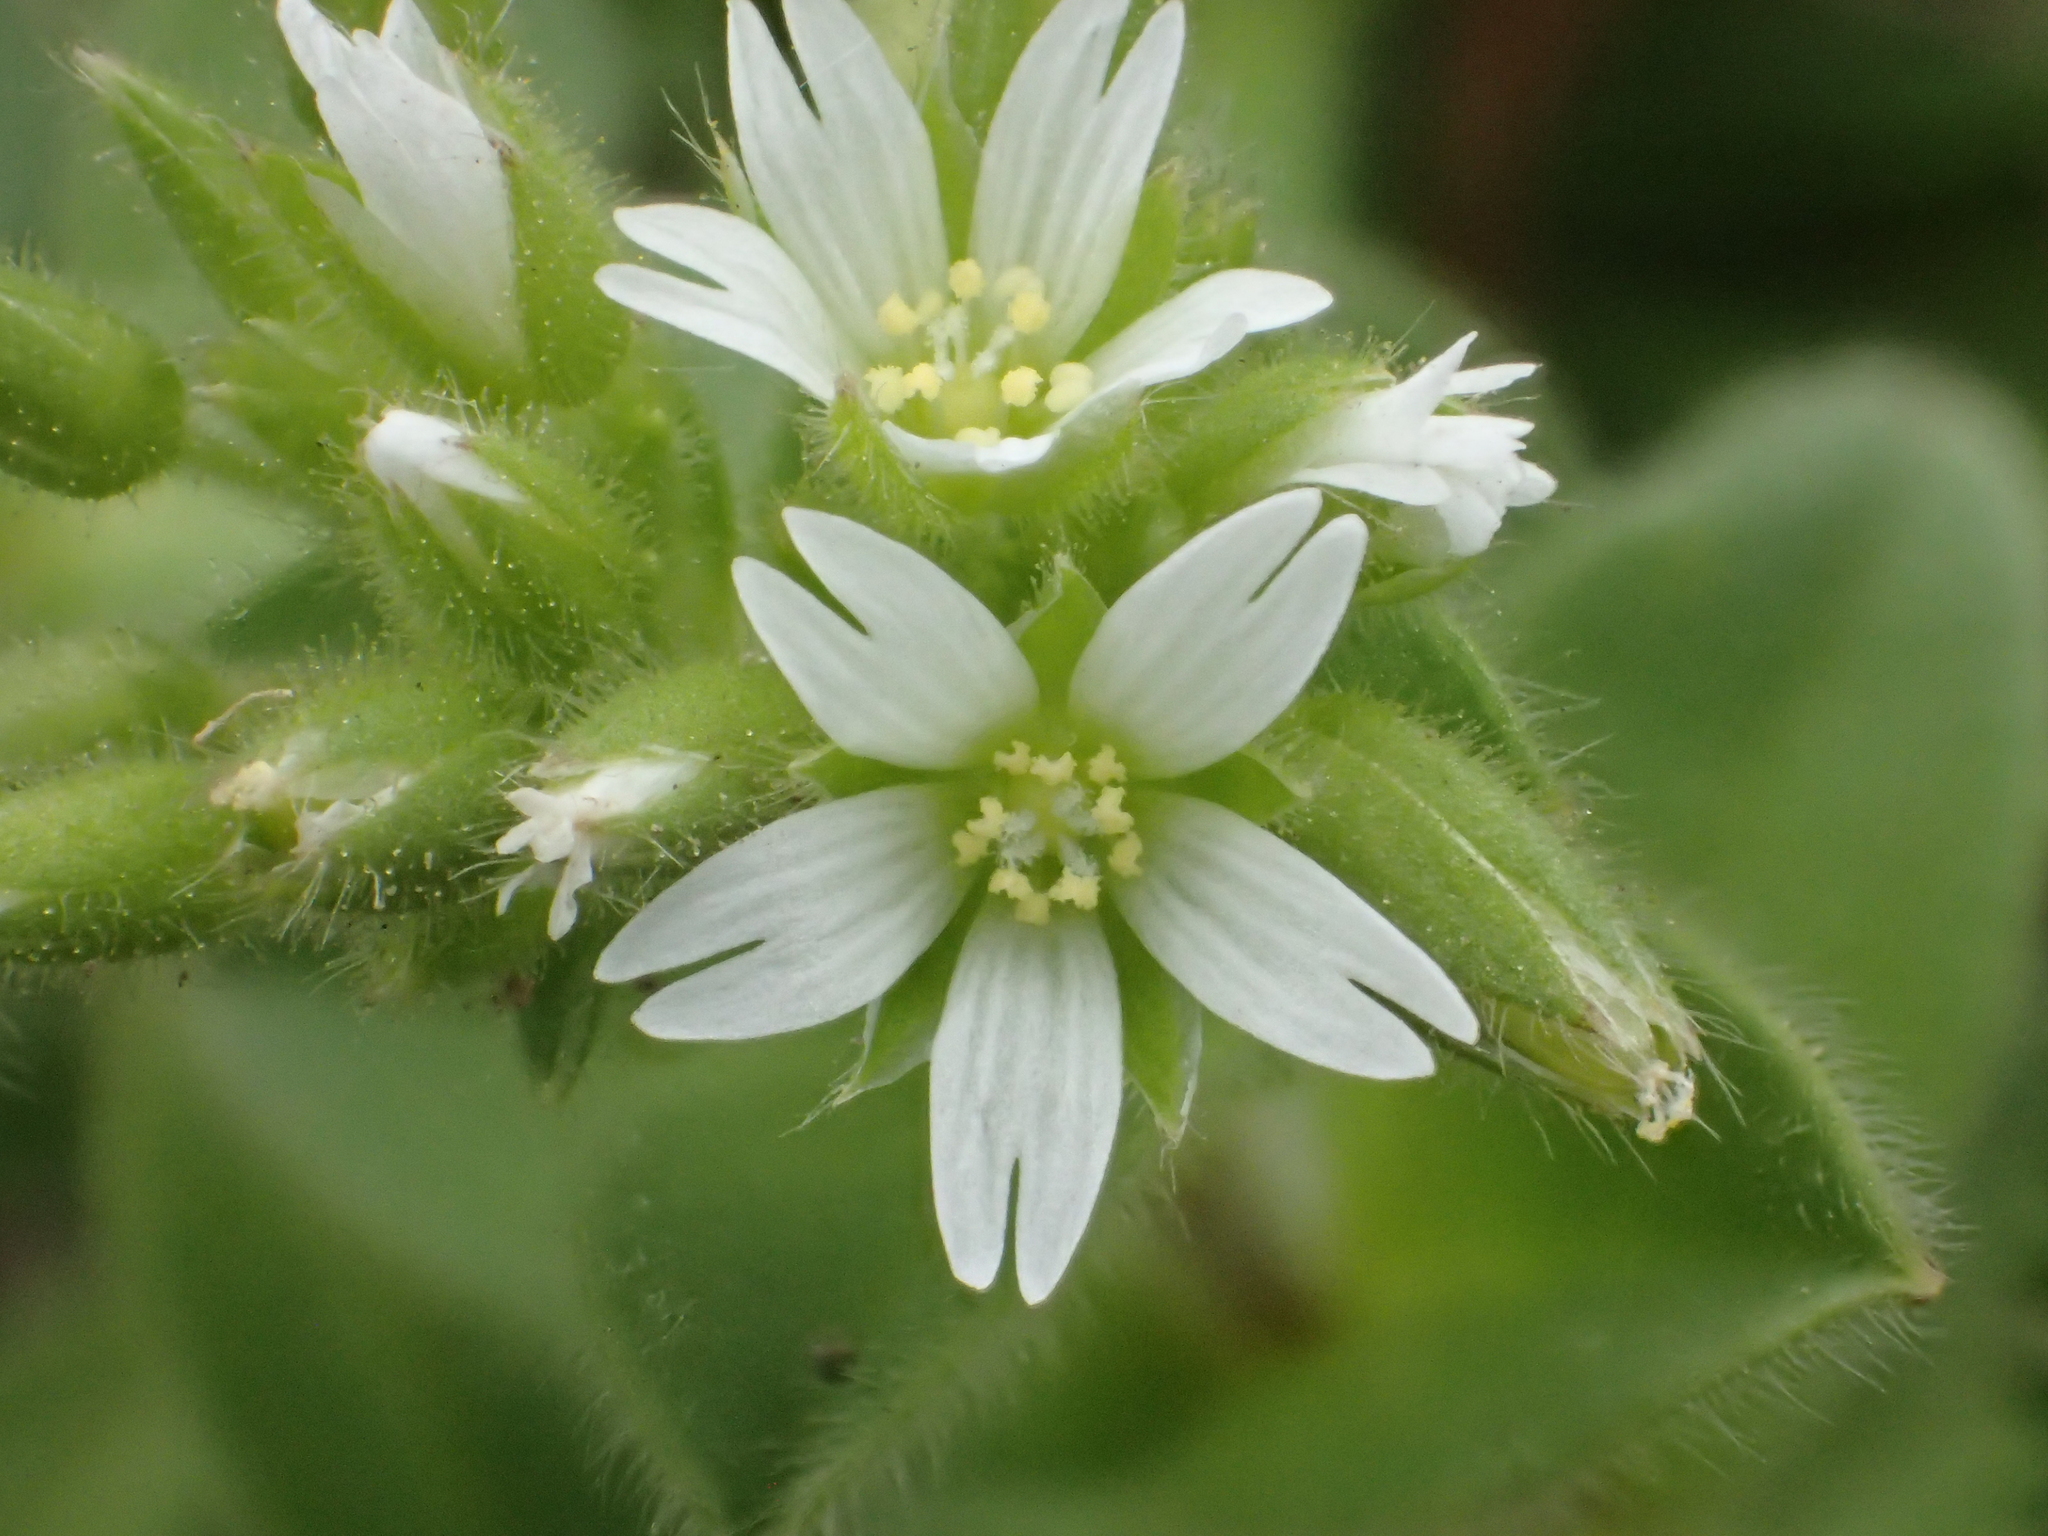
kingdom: Plantae
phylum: Tracheophyta
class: Magnoliopsida
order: Caryophyllales
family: Caryophyllaceae
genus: Cerastium
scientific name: Cerastium glomeratum
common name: Sticky chickweed
